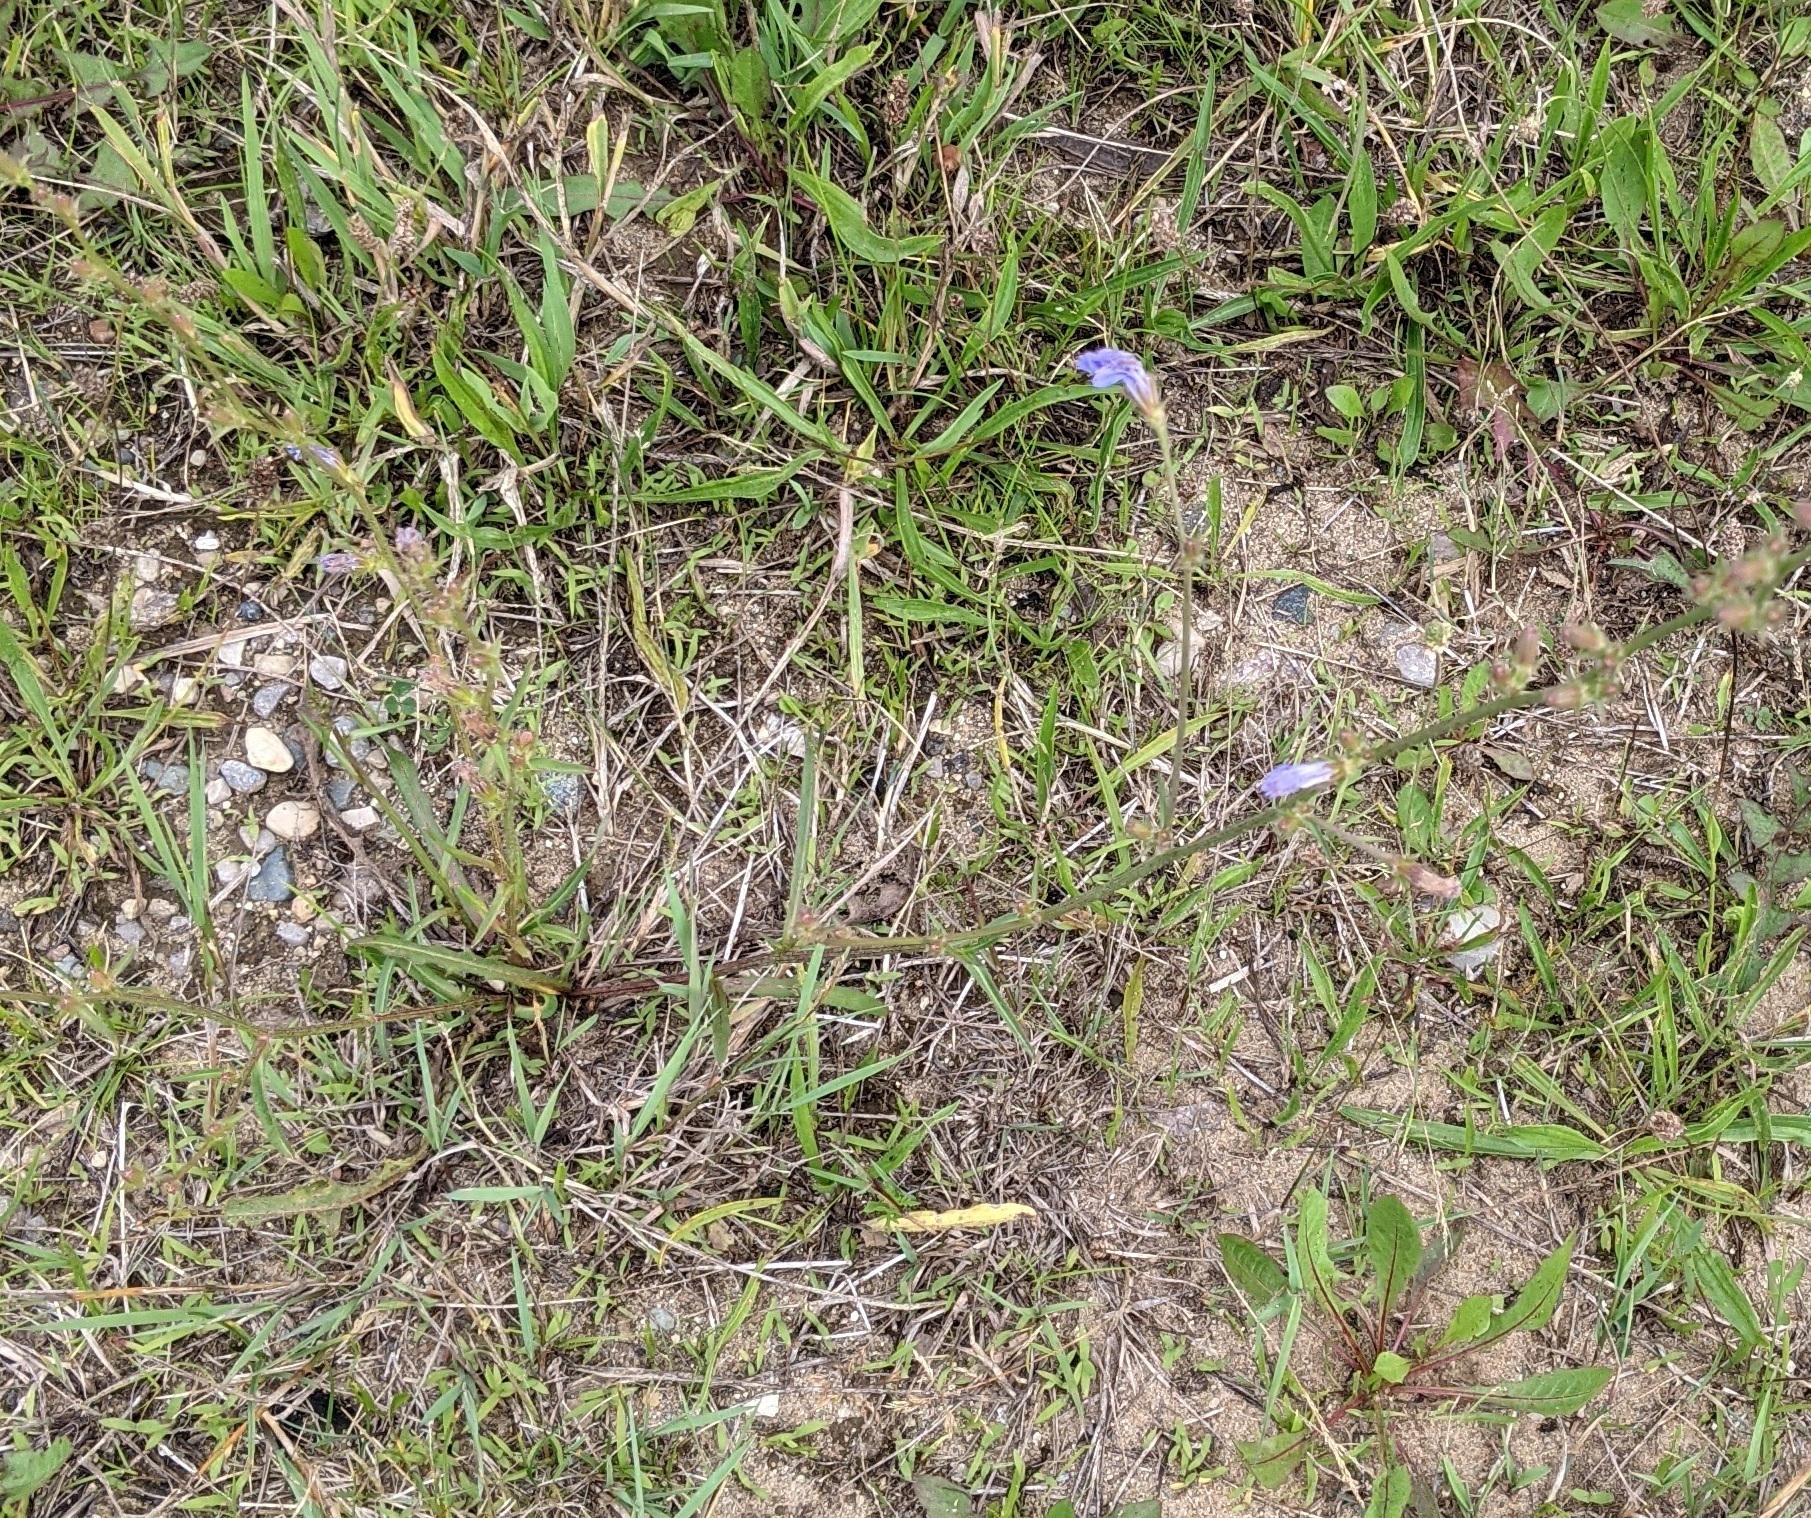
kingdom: Plantae
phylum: Tracheophyta
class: Magnoliopsida
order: Asterales
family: Asteraceae
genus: Cichorium
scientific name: Cichorium intybus
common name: Chicory
